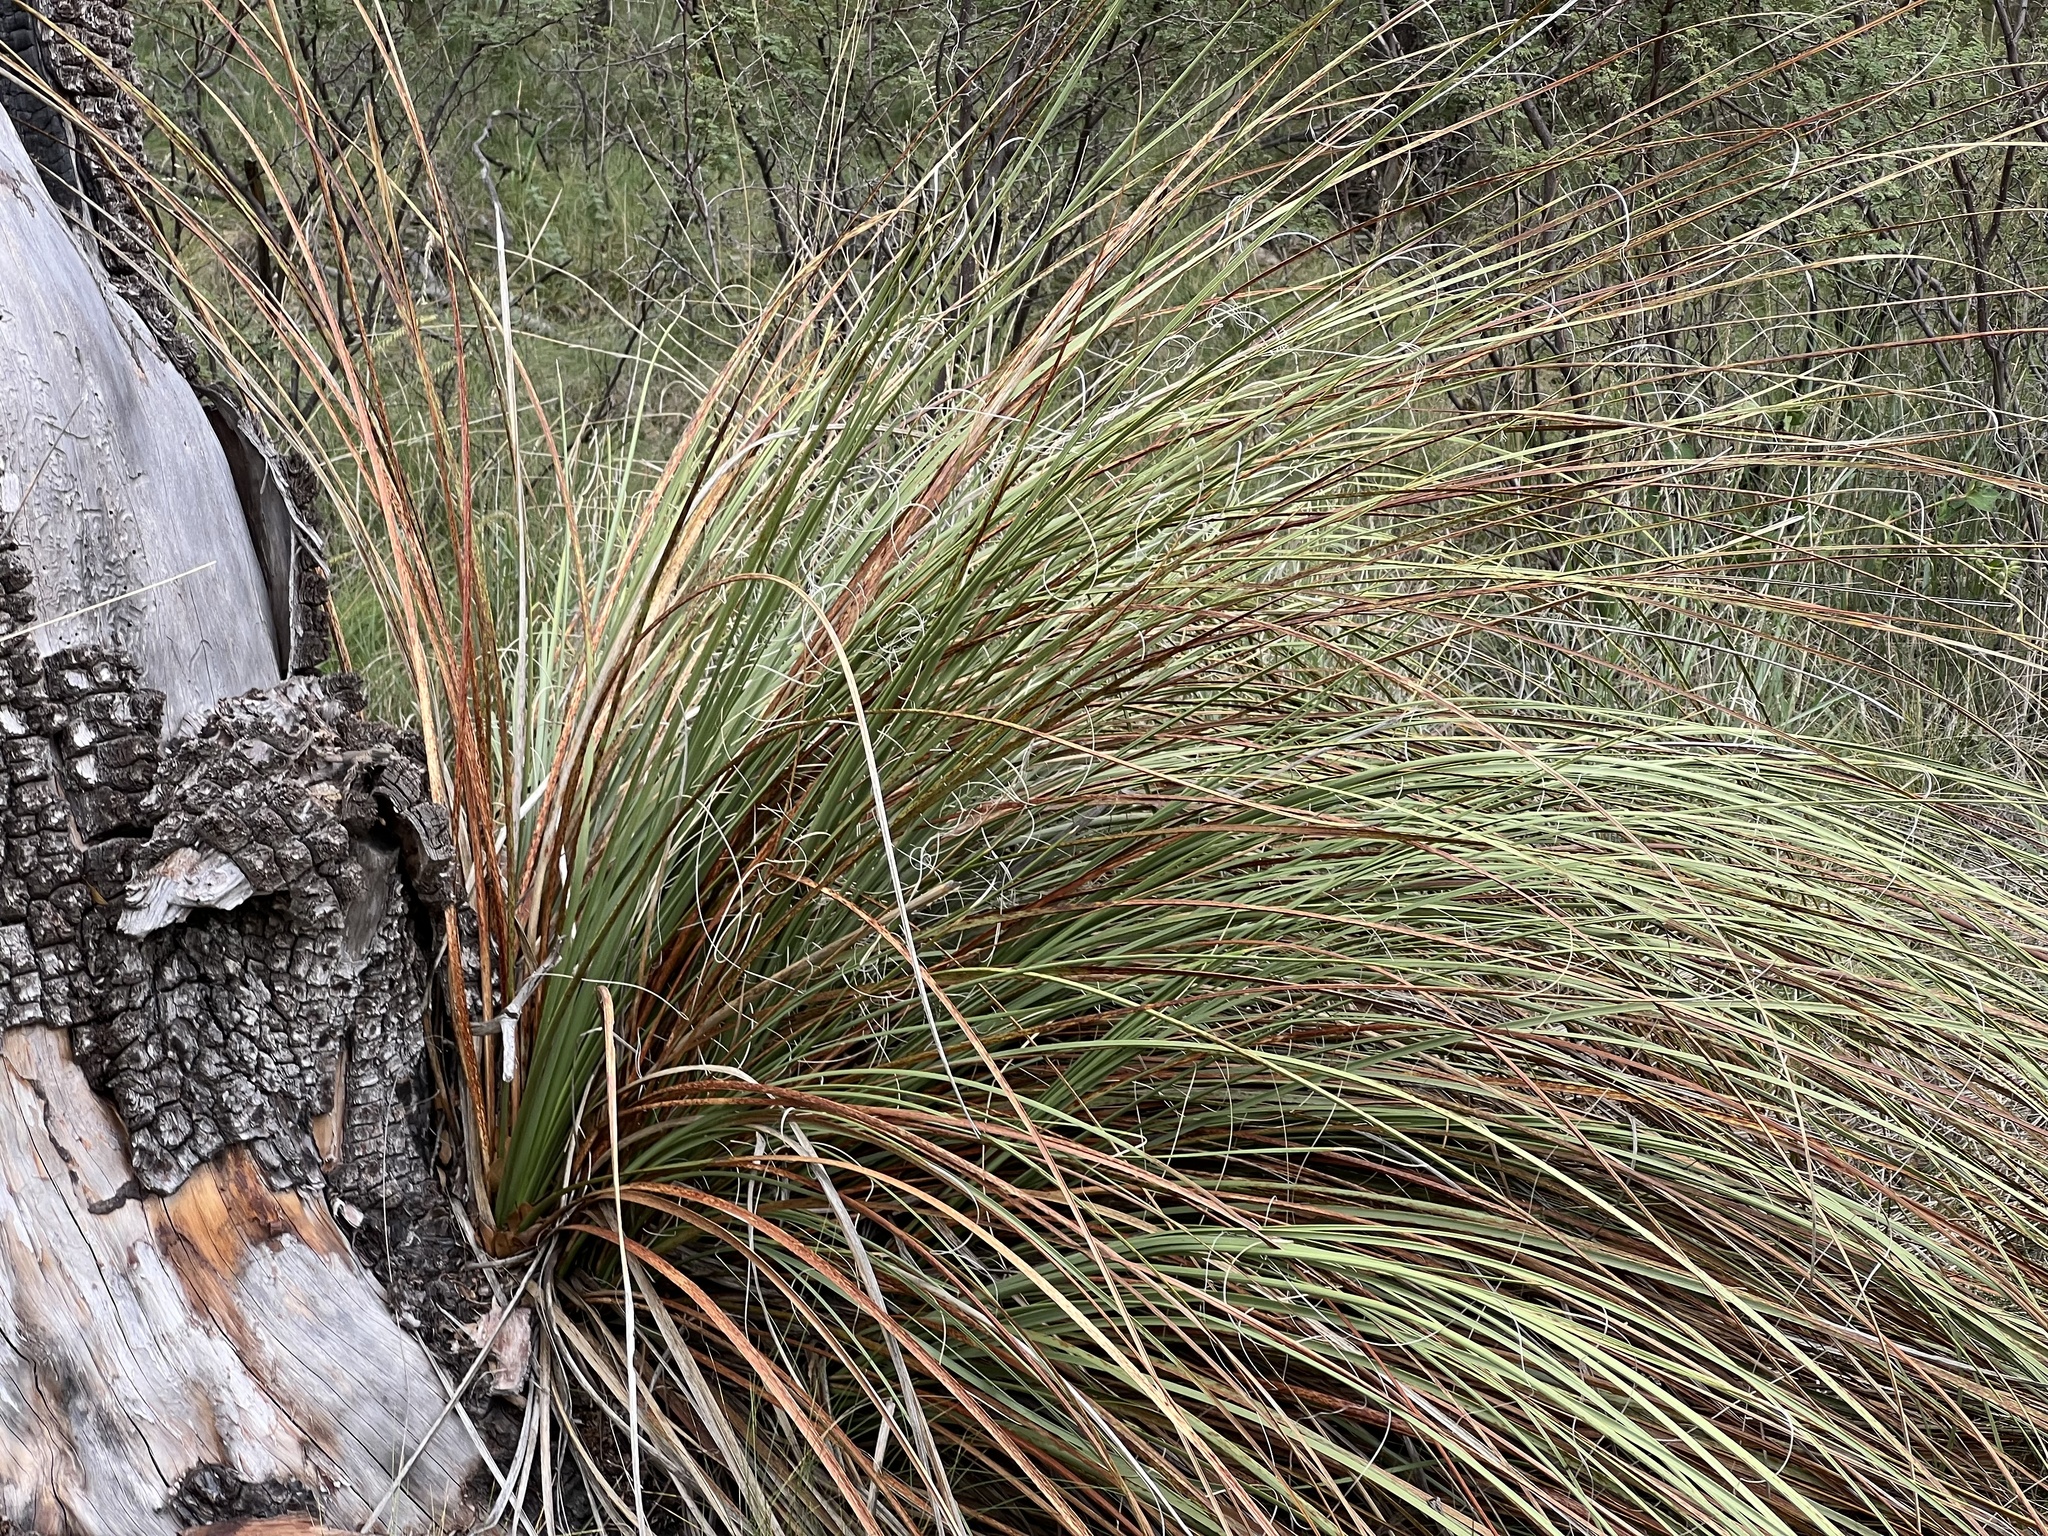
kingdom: Plantae
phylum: Tracheophyta
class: Liliopsida
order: Asparagales
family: Asparagaceae
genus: Nolina
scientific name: Nolina microcarpa
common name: Bear-grass
